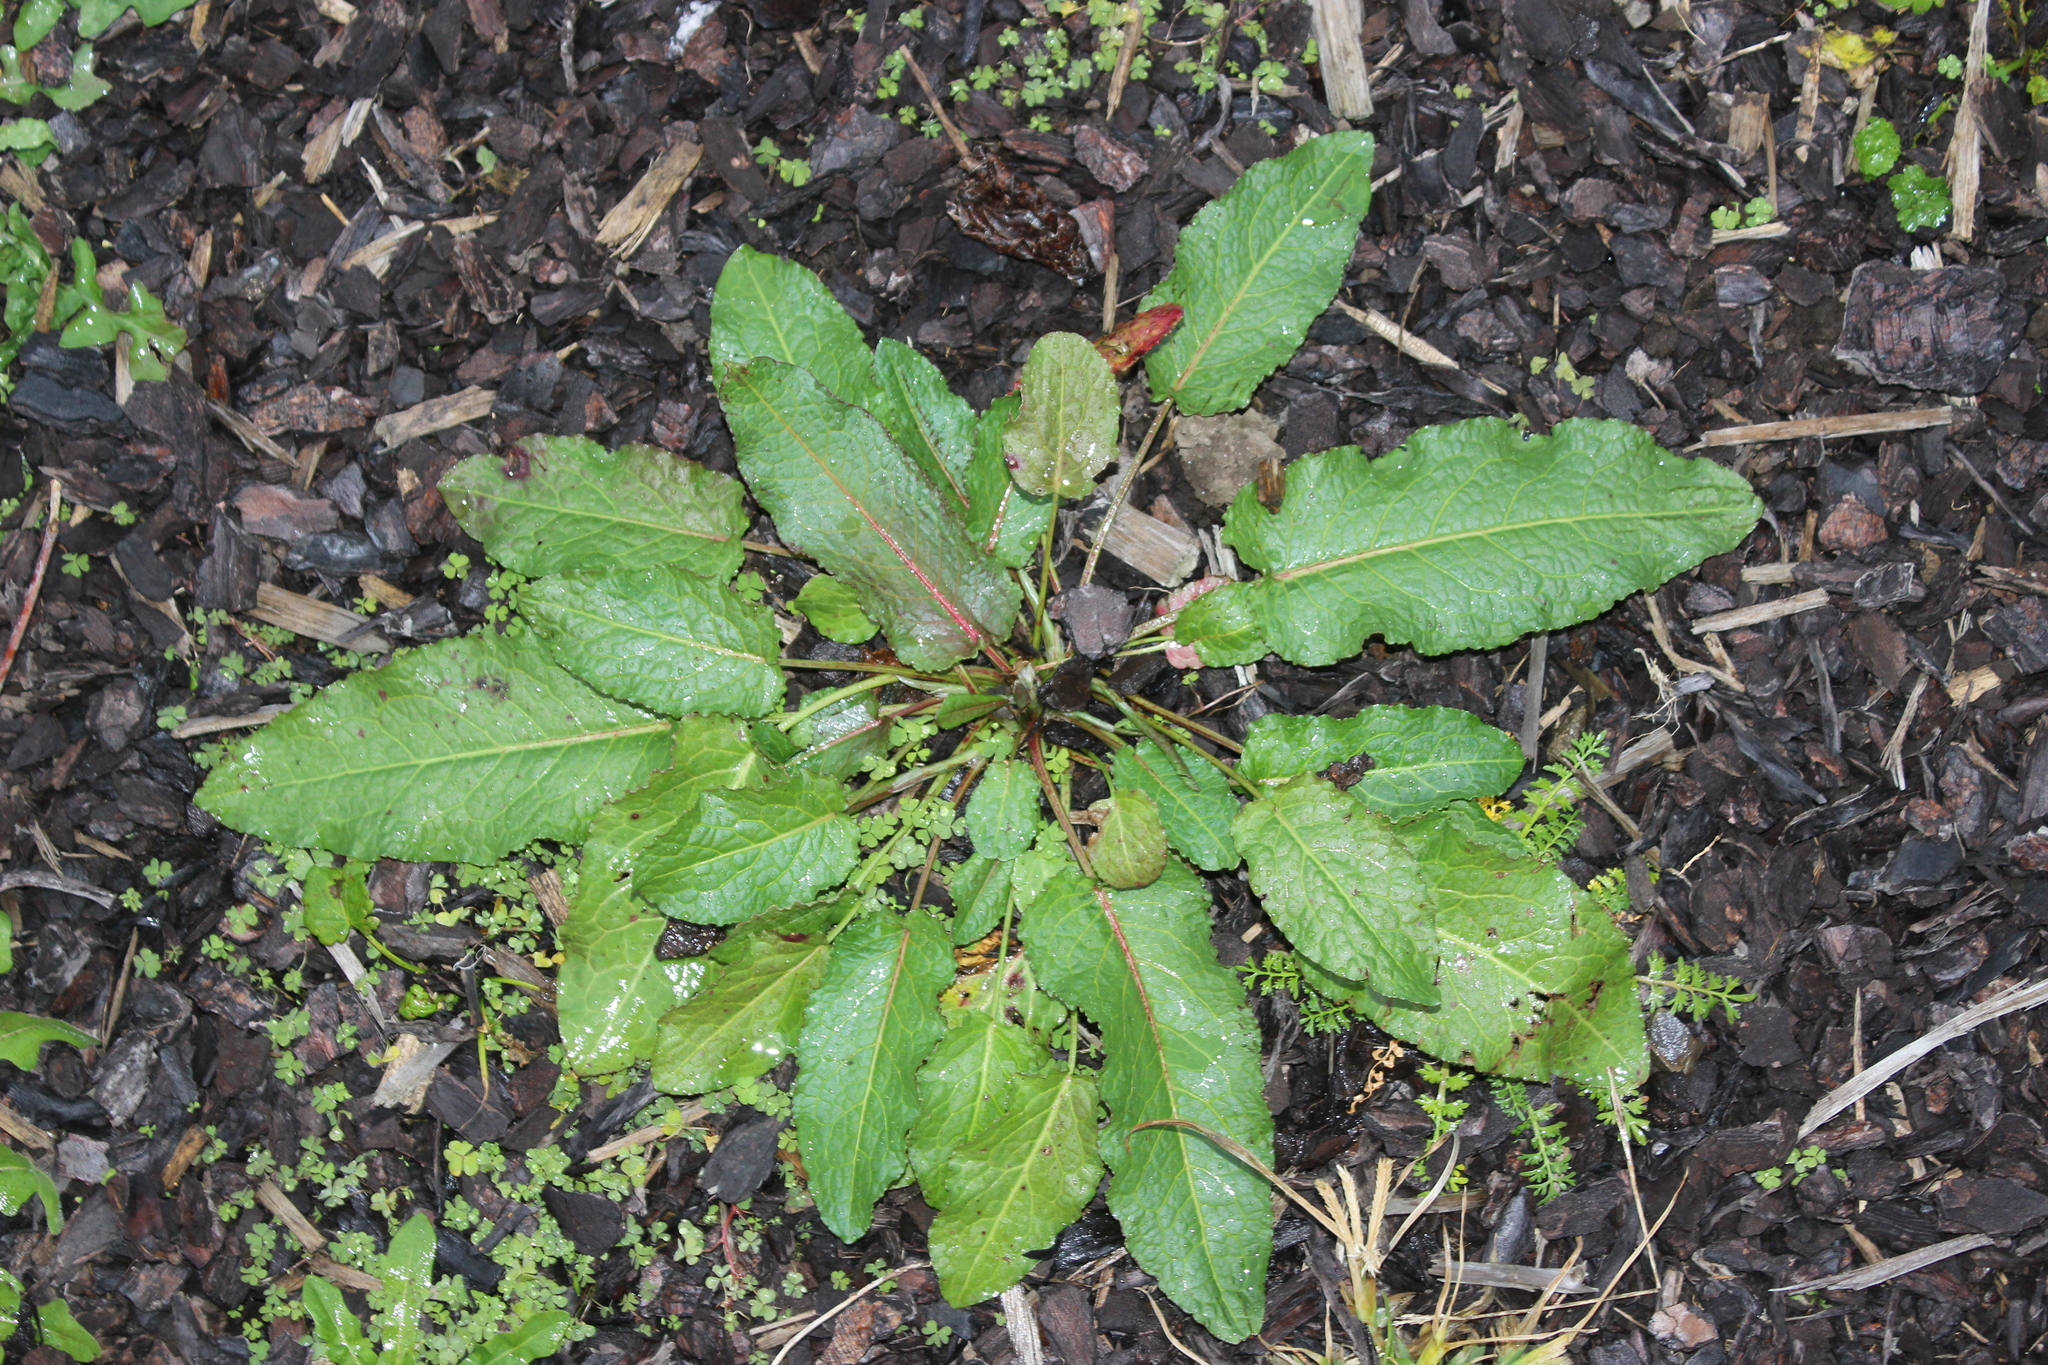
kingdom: Plantae
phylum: Tracheophyta
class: Magnoliopsida
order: Caryophyllales
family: Polygonaceae
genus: Rumex
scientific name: Rumex obtusifolius
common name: Bitter dock
